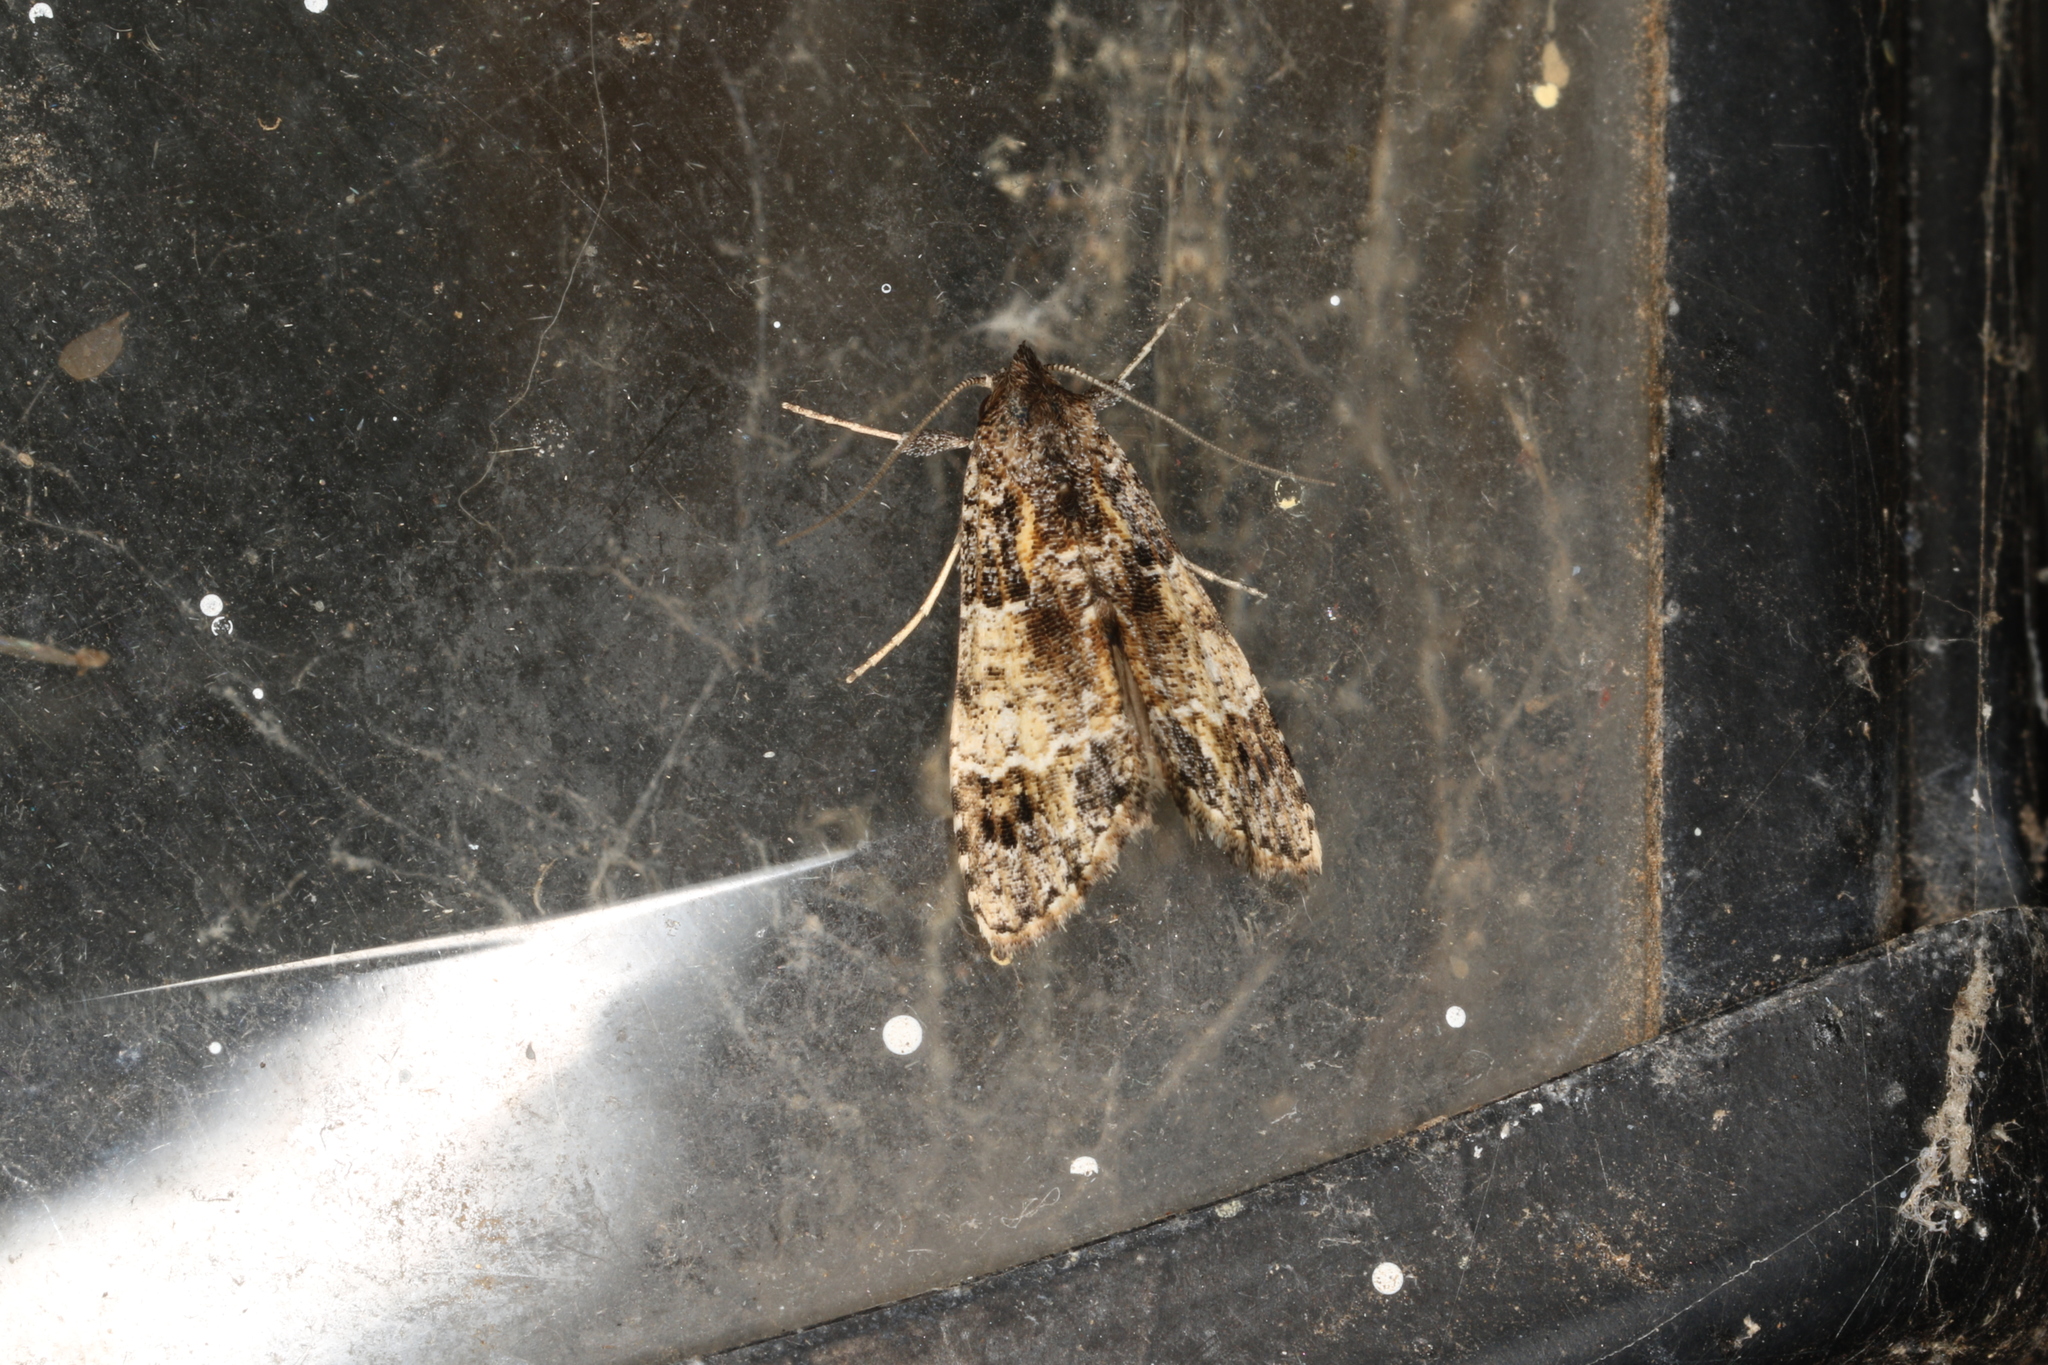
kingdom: Animalia
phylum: Arthropoda
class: Insecta
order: Lepidoptera
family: Erebidae
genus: Arrade
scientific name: Arrade destituta
